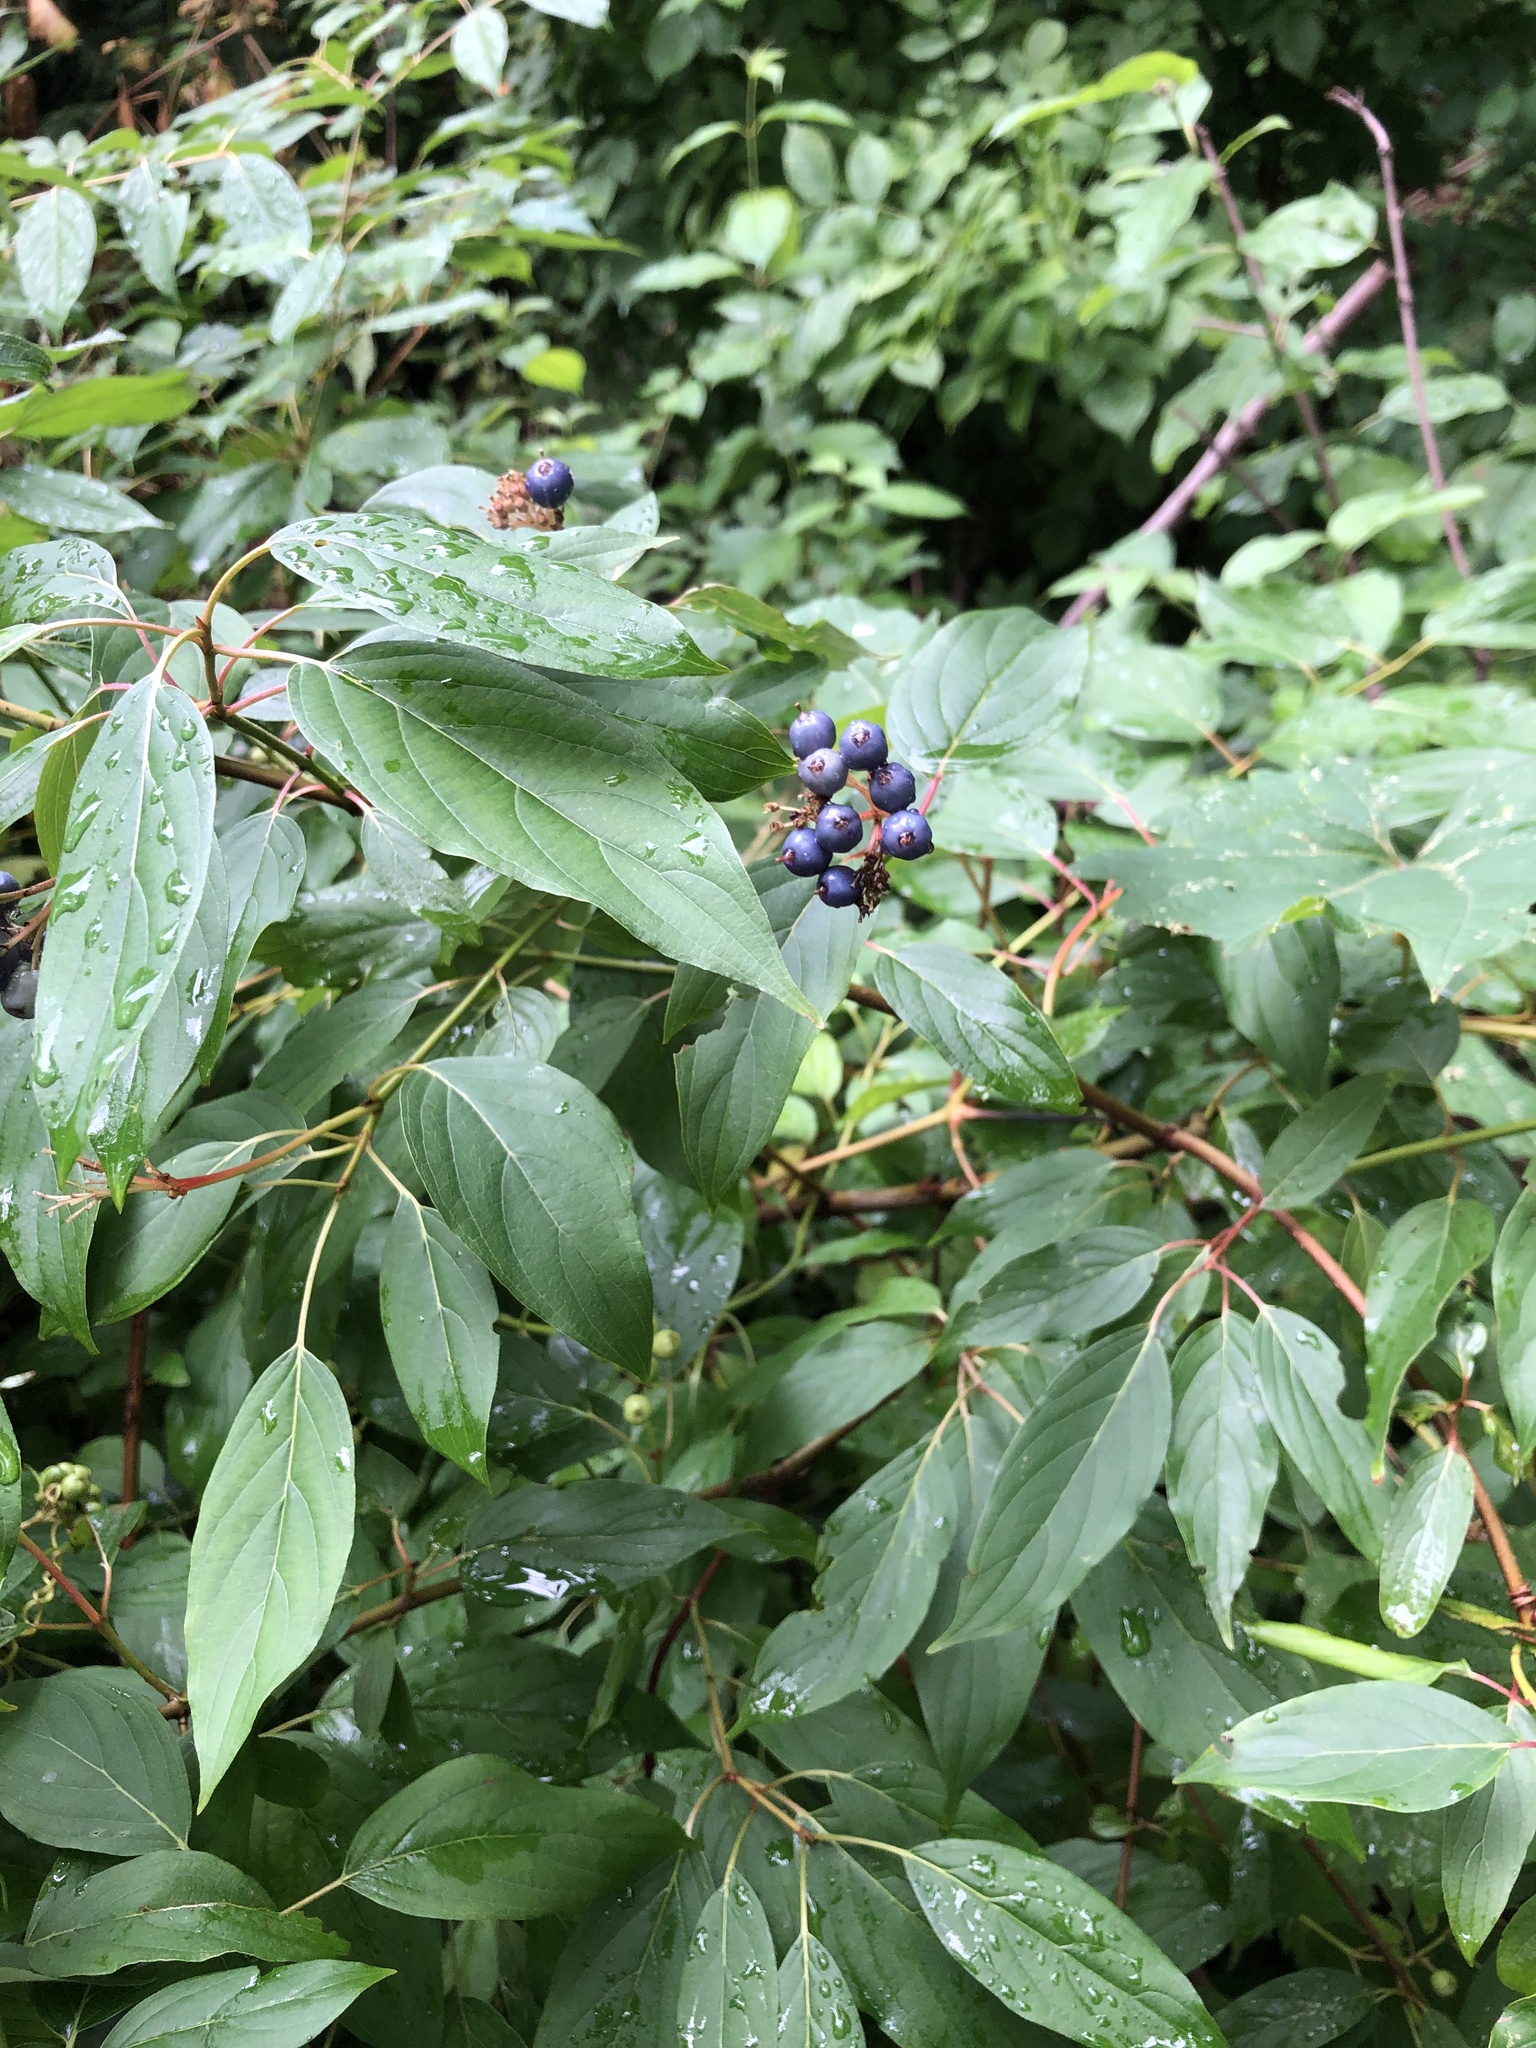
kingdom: Plantae
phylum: Tracheophyta
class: Magnoliopsida
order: Cornales
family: Cornaceae
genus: Cornus
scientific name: Cornus obliqua
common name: Pale dogwood
